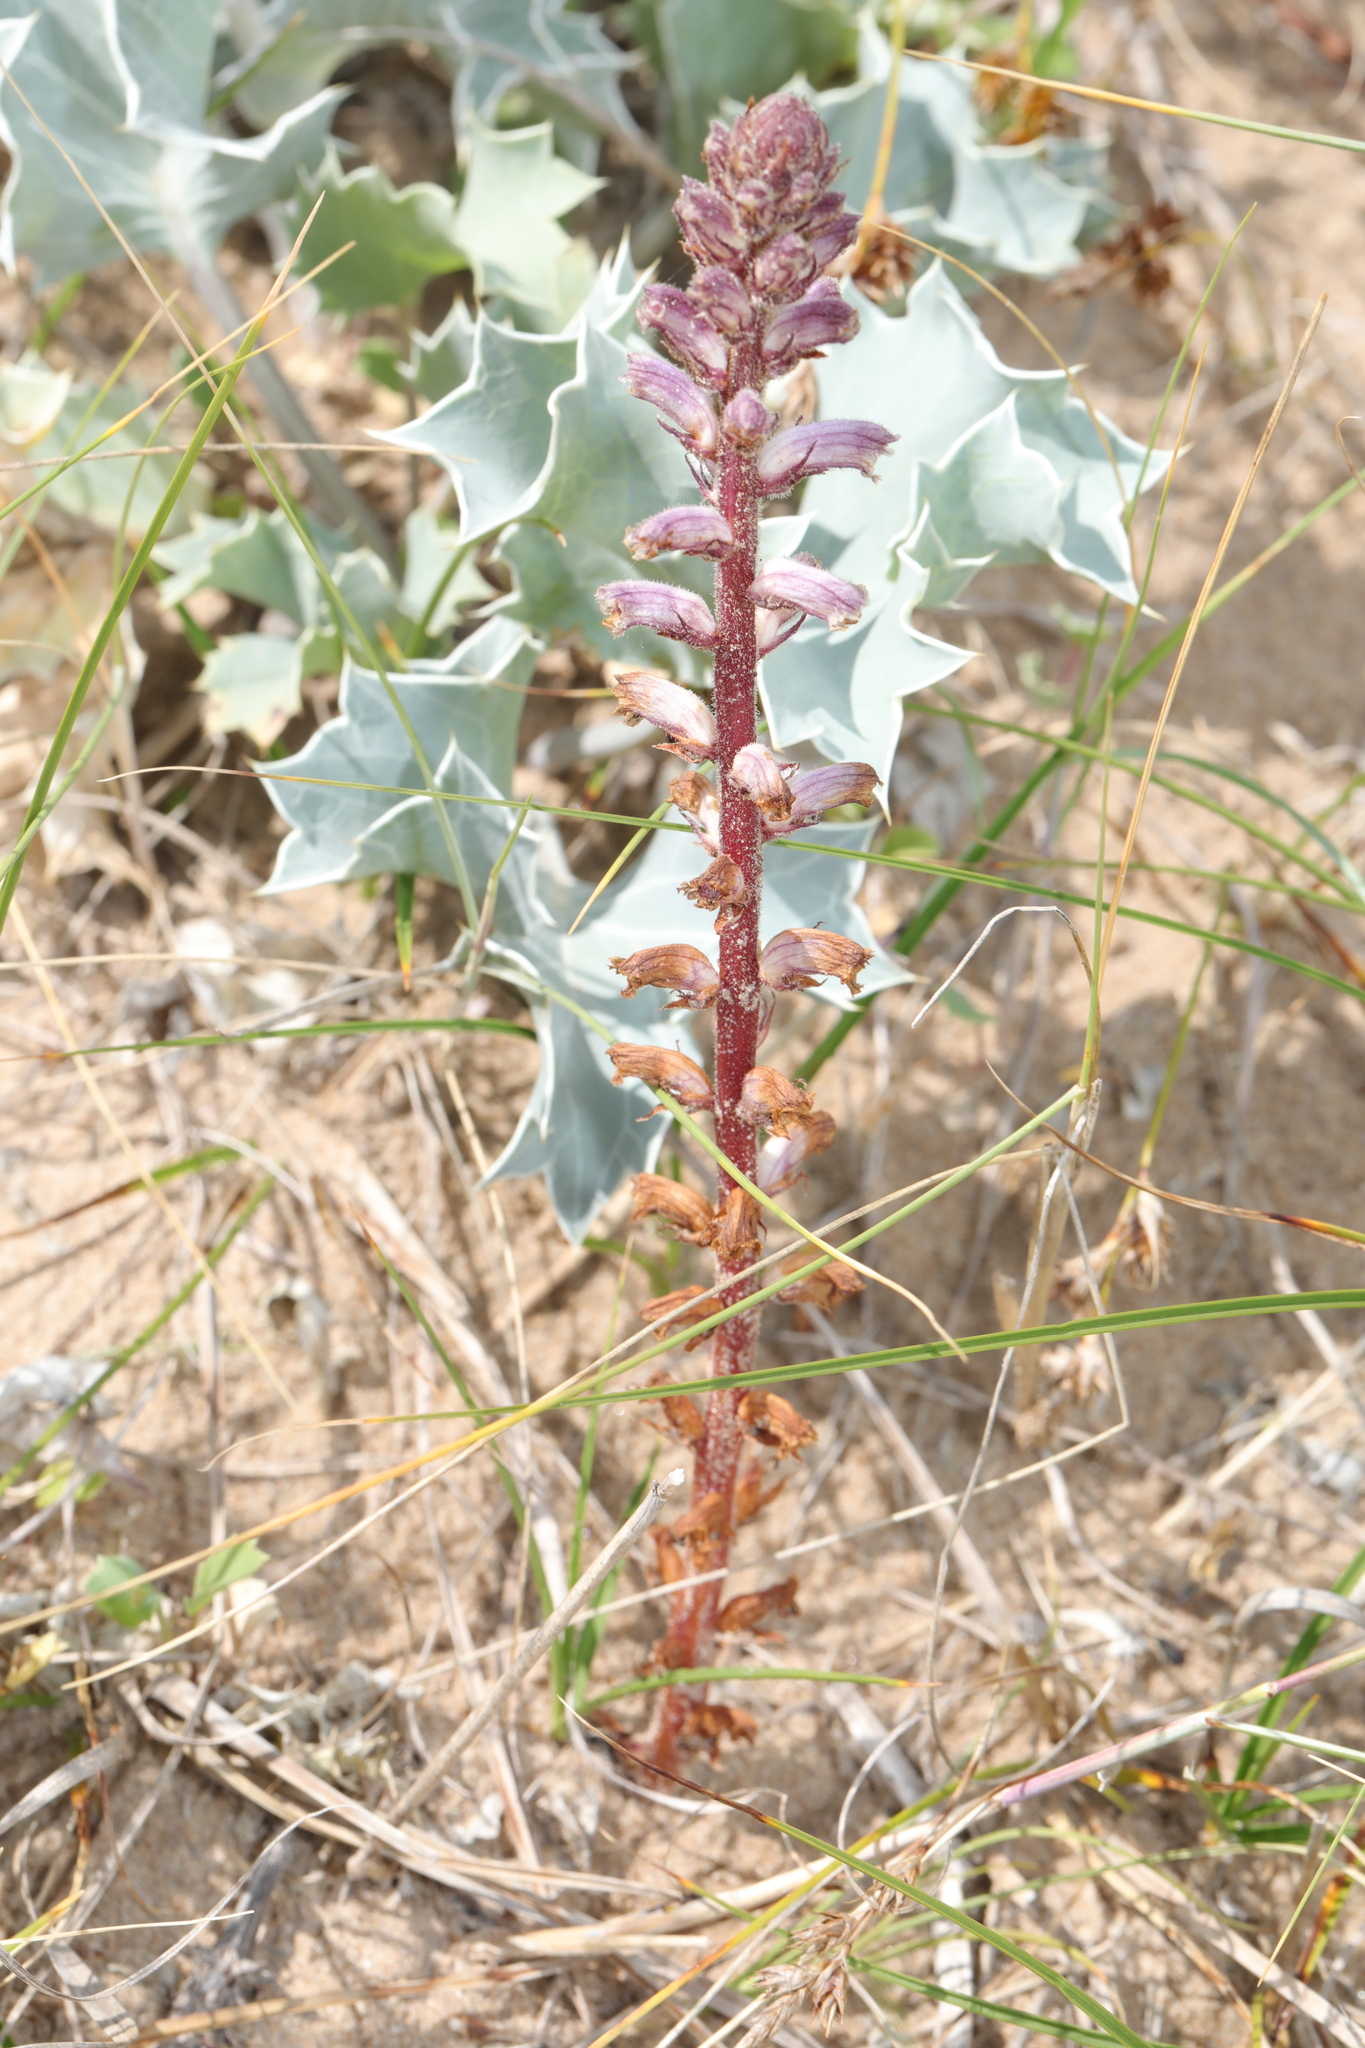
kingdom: Plantae
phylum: Tracheophyta
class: Magnoliopsida
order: Lamiales
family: Orobanchaceae
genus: Orobanche
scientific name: Orobanche minor
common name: Common broomrape
